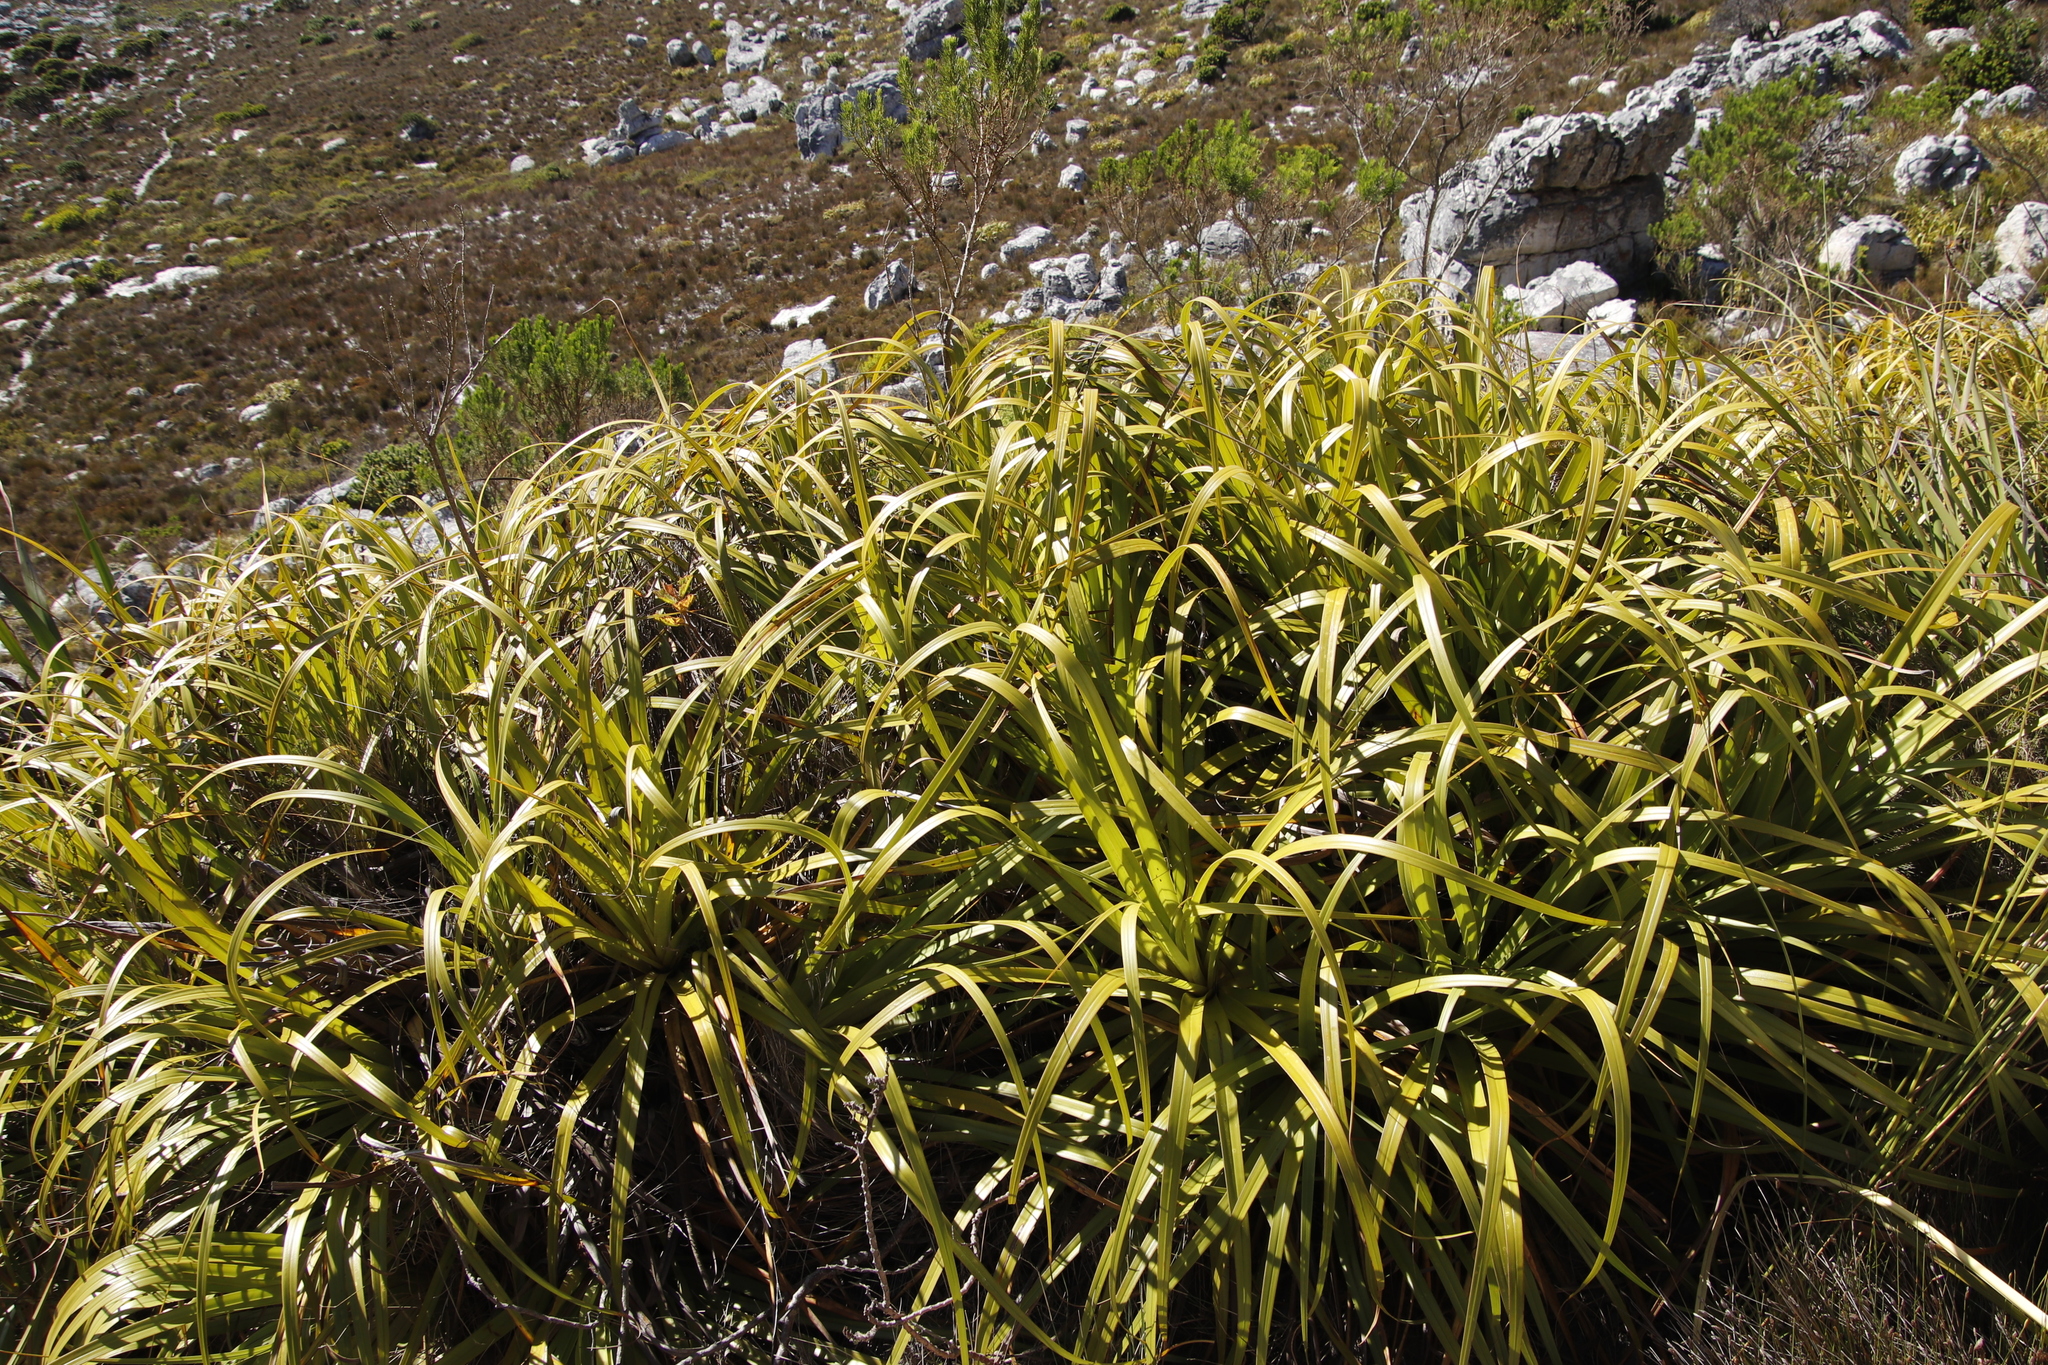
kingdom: Plantae
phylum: Tracheophyta
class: Liliopsida
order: Poales
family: Cyperaceae
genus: Tetraria
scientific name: Tetraria thermalis
